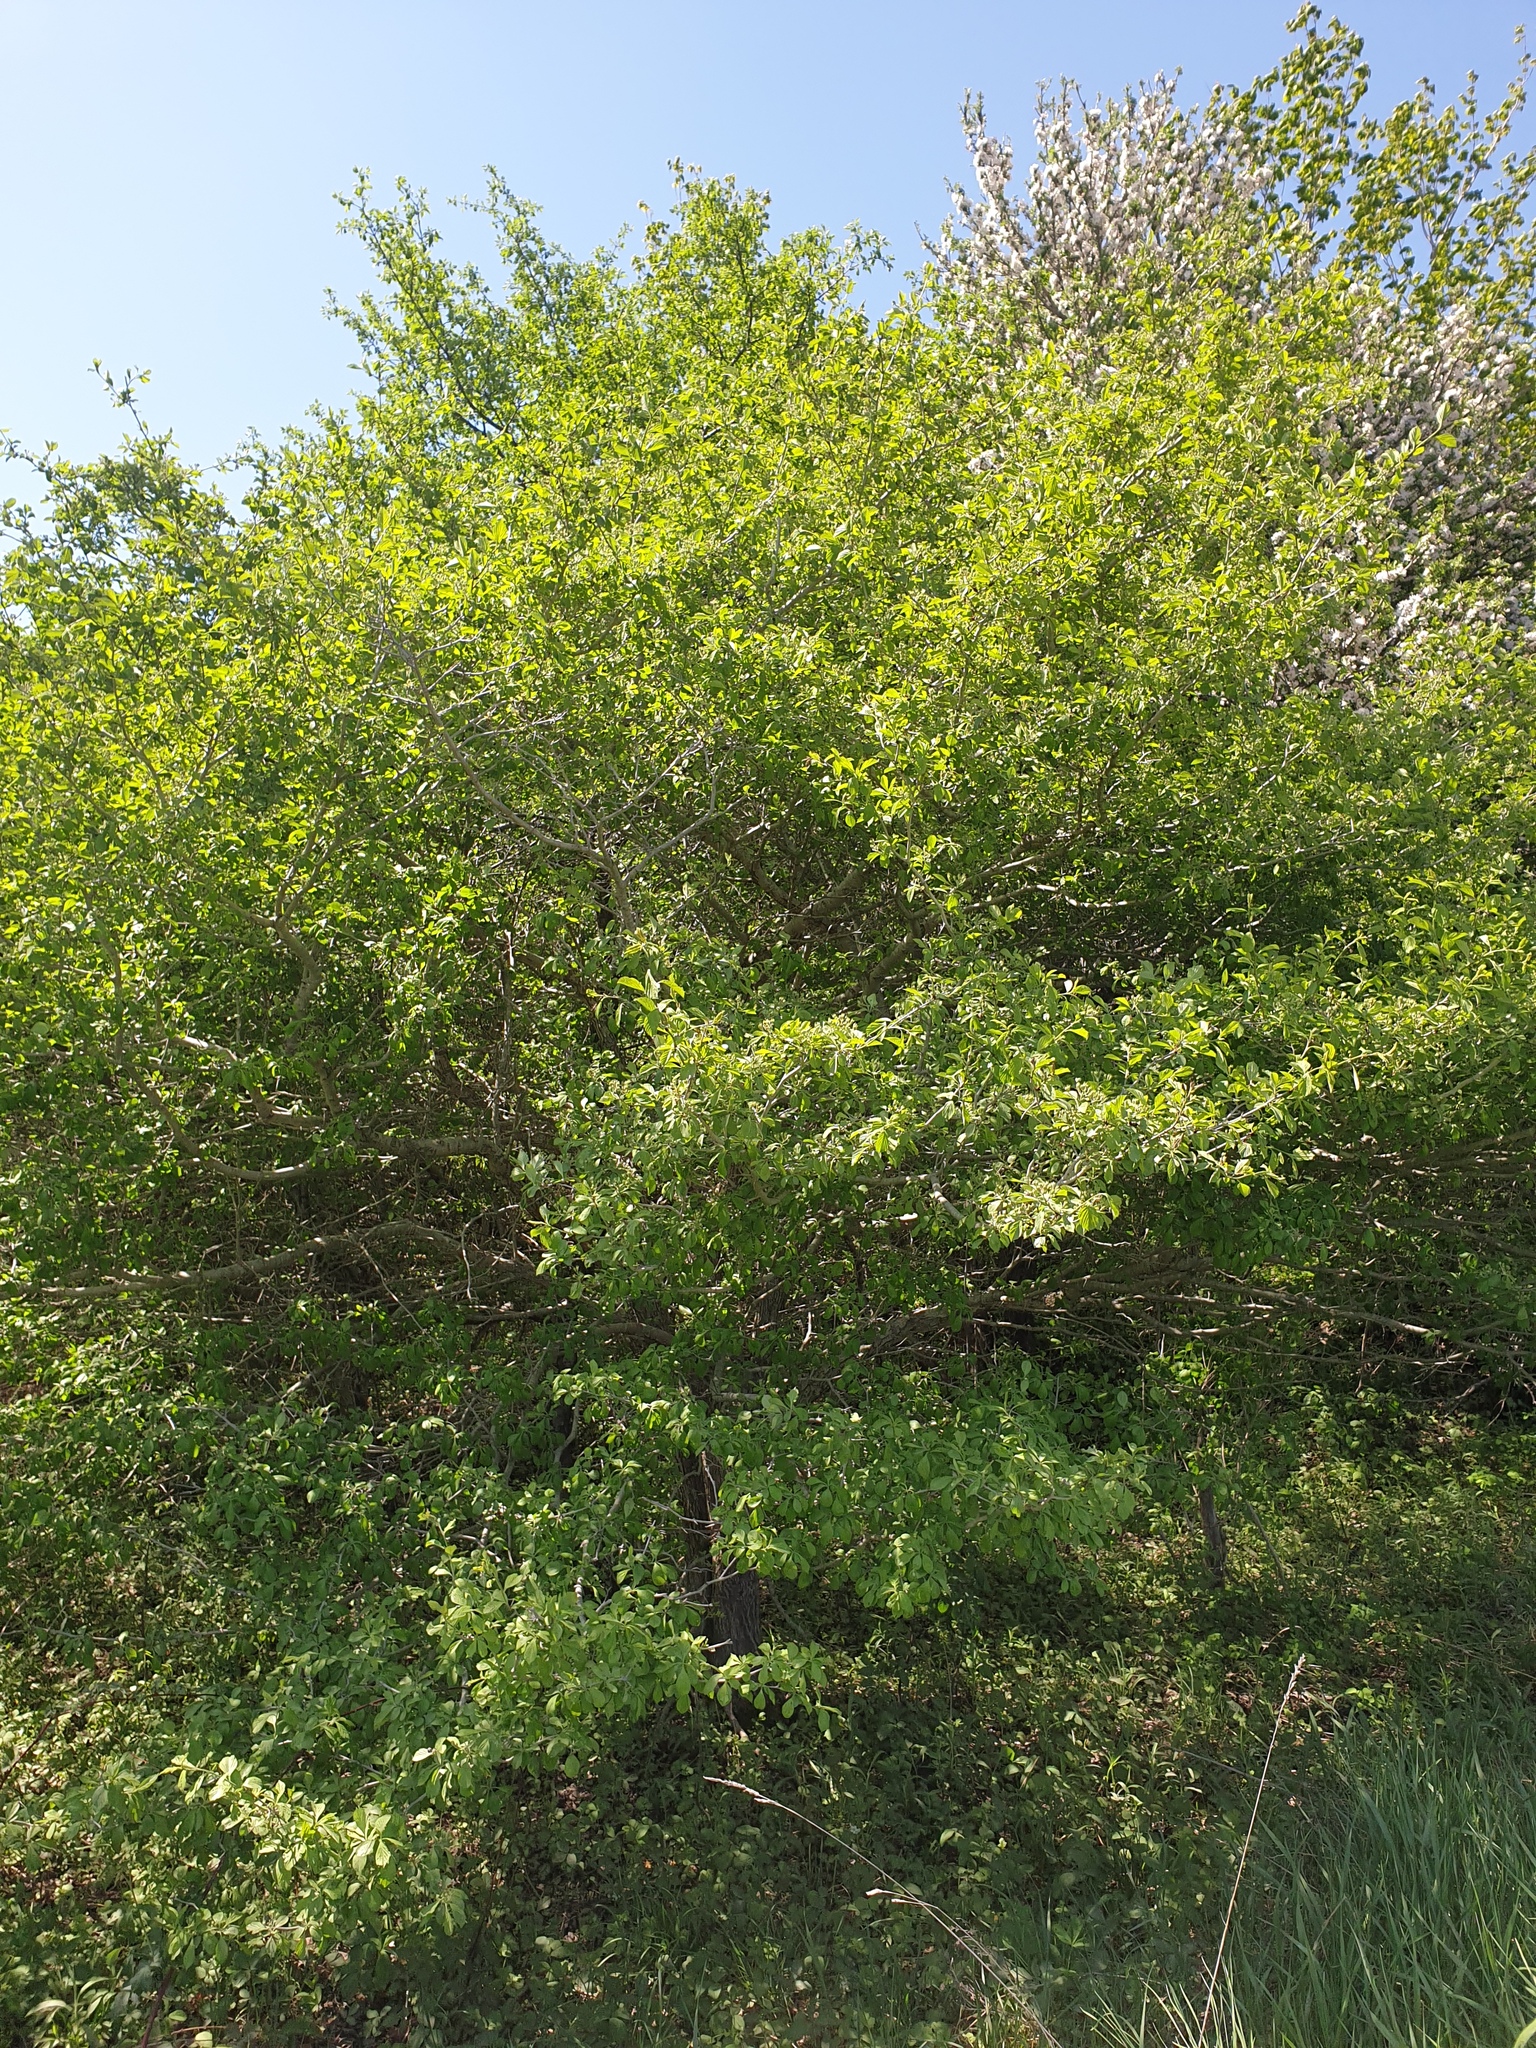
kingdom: Plantae
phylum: Tracheophyta
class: Magnoliopsida
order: Rosales
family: Rosaceae
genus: Crataegus
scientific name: Crataegus punctata
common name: Dotted hawthorn
